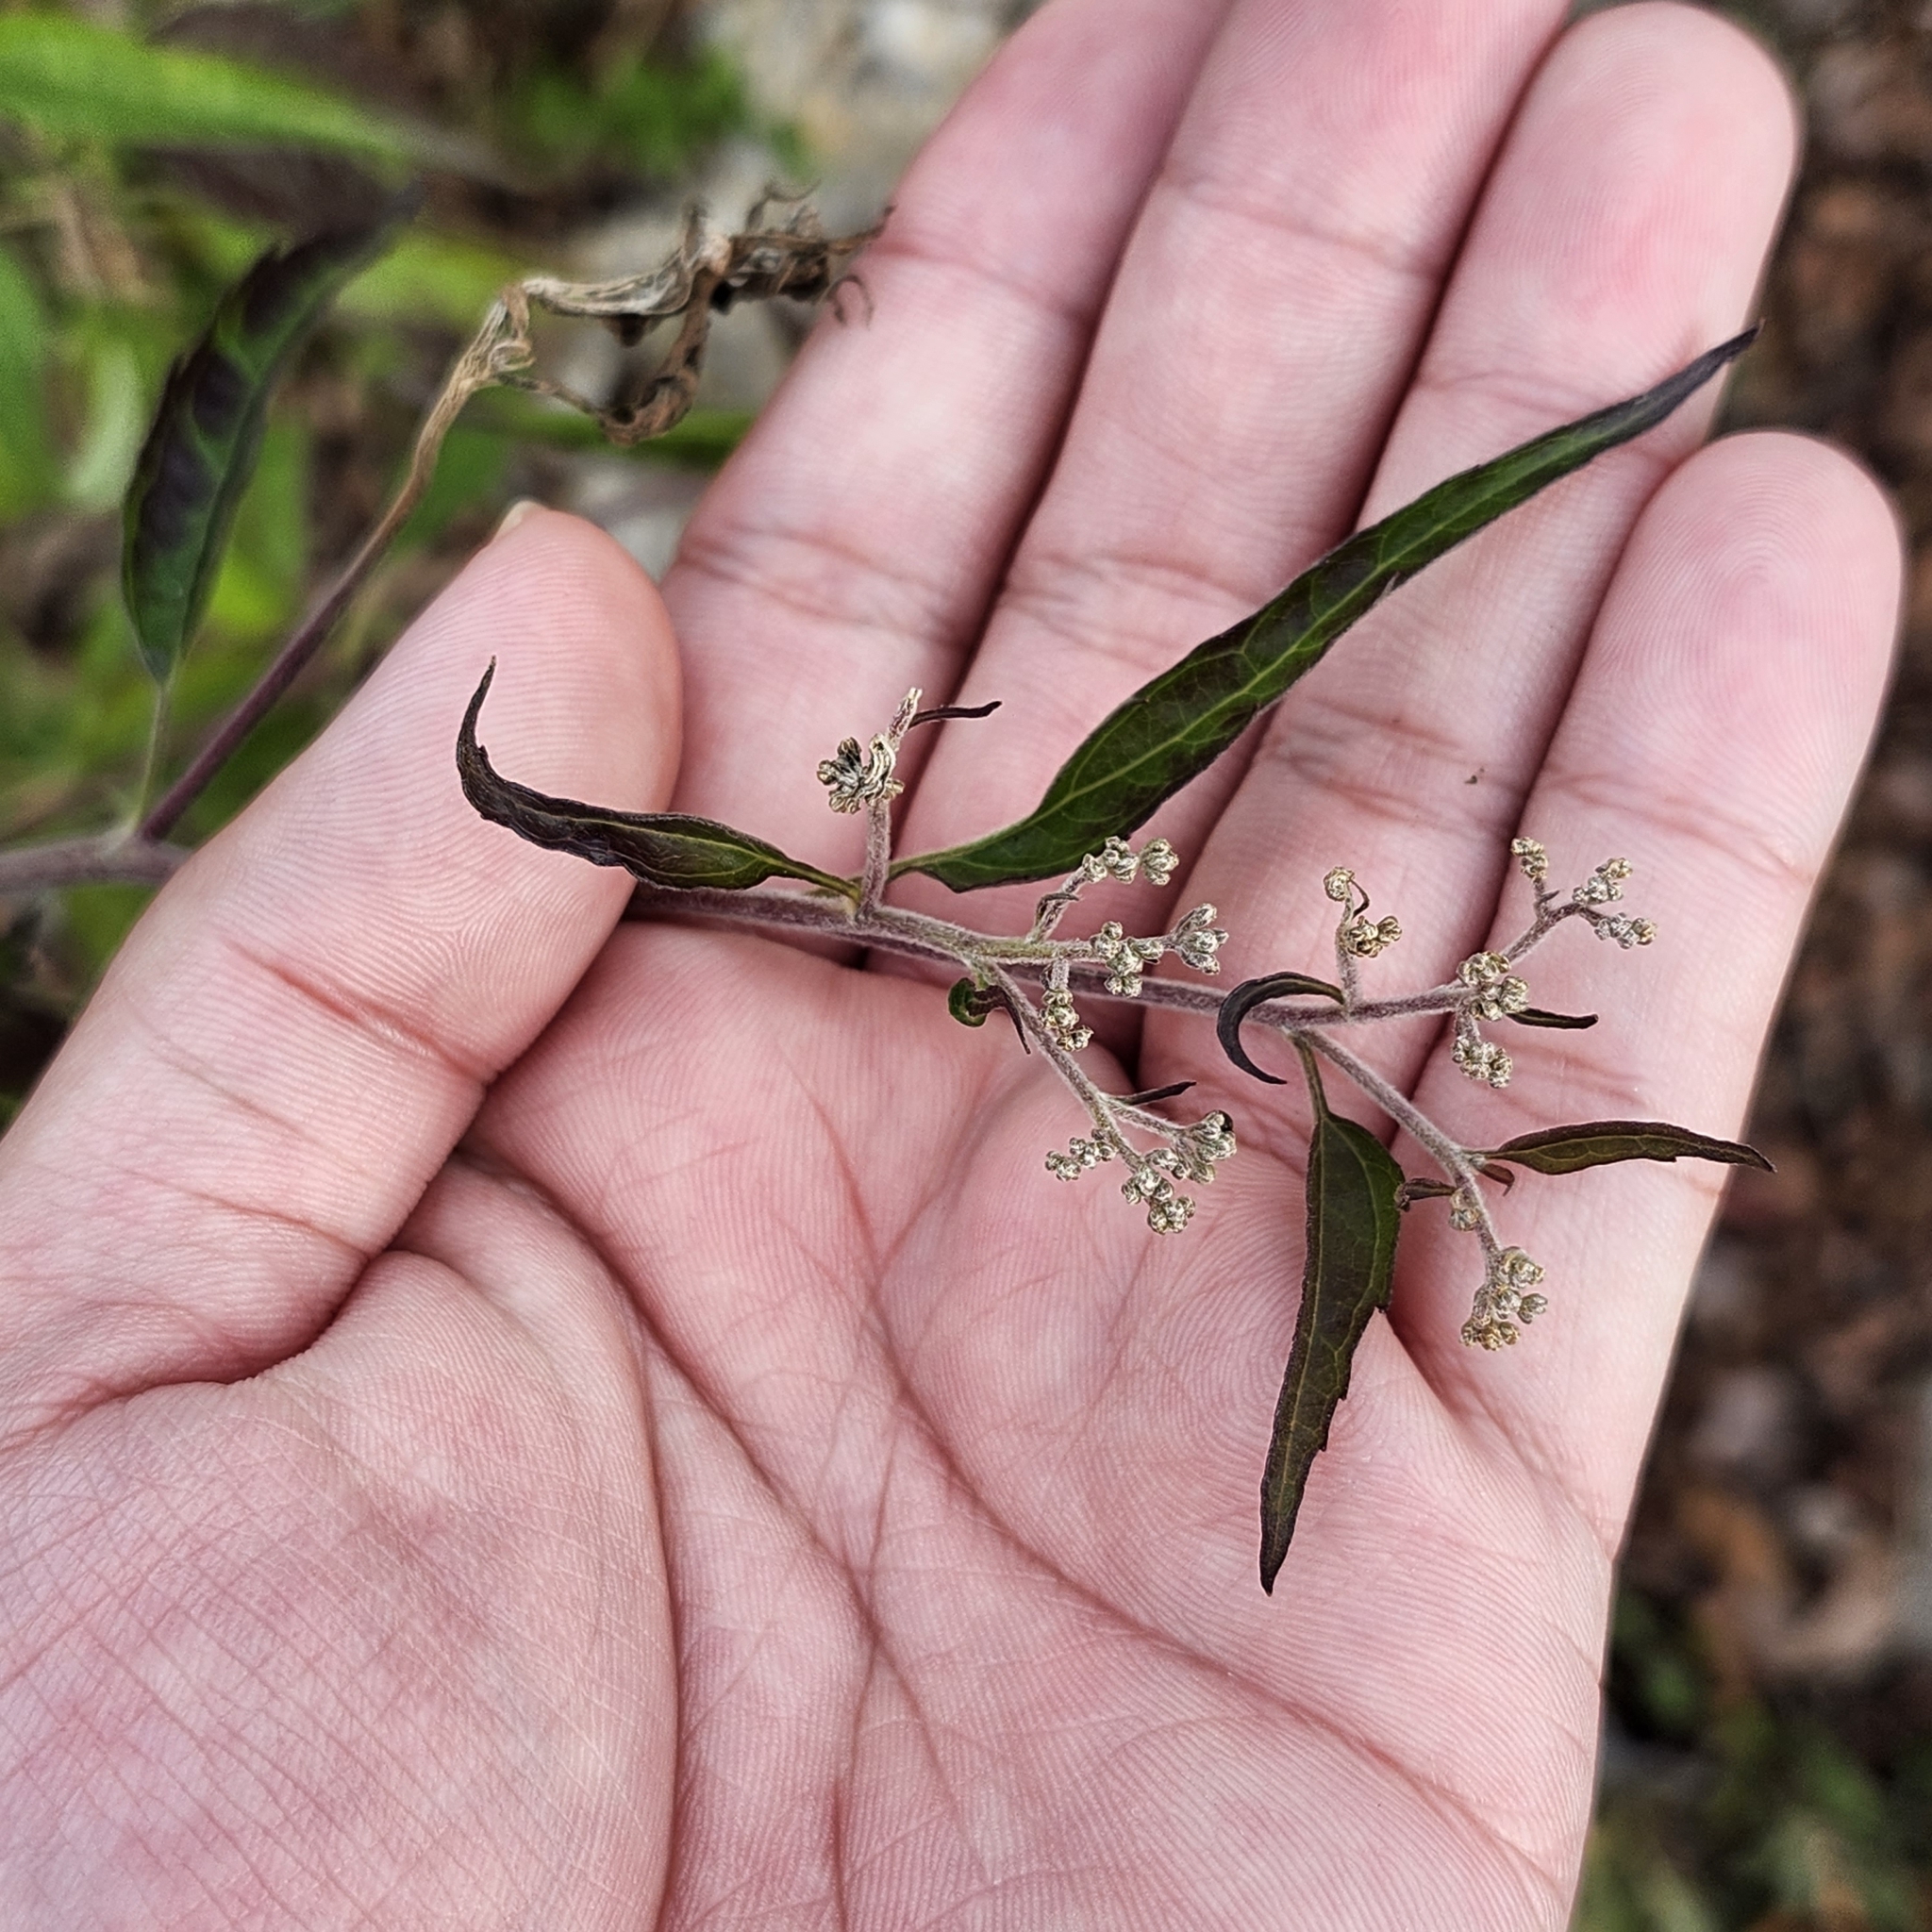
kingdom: Plantae
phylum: Tracheophyta
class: Magnoliopsida
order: Asterales
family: Asteraceae
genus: Eupatorium
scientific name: Eupatorium serotinum
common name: Late boneset
